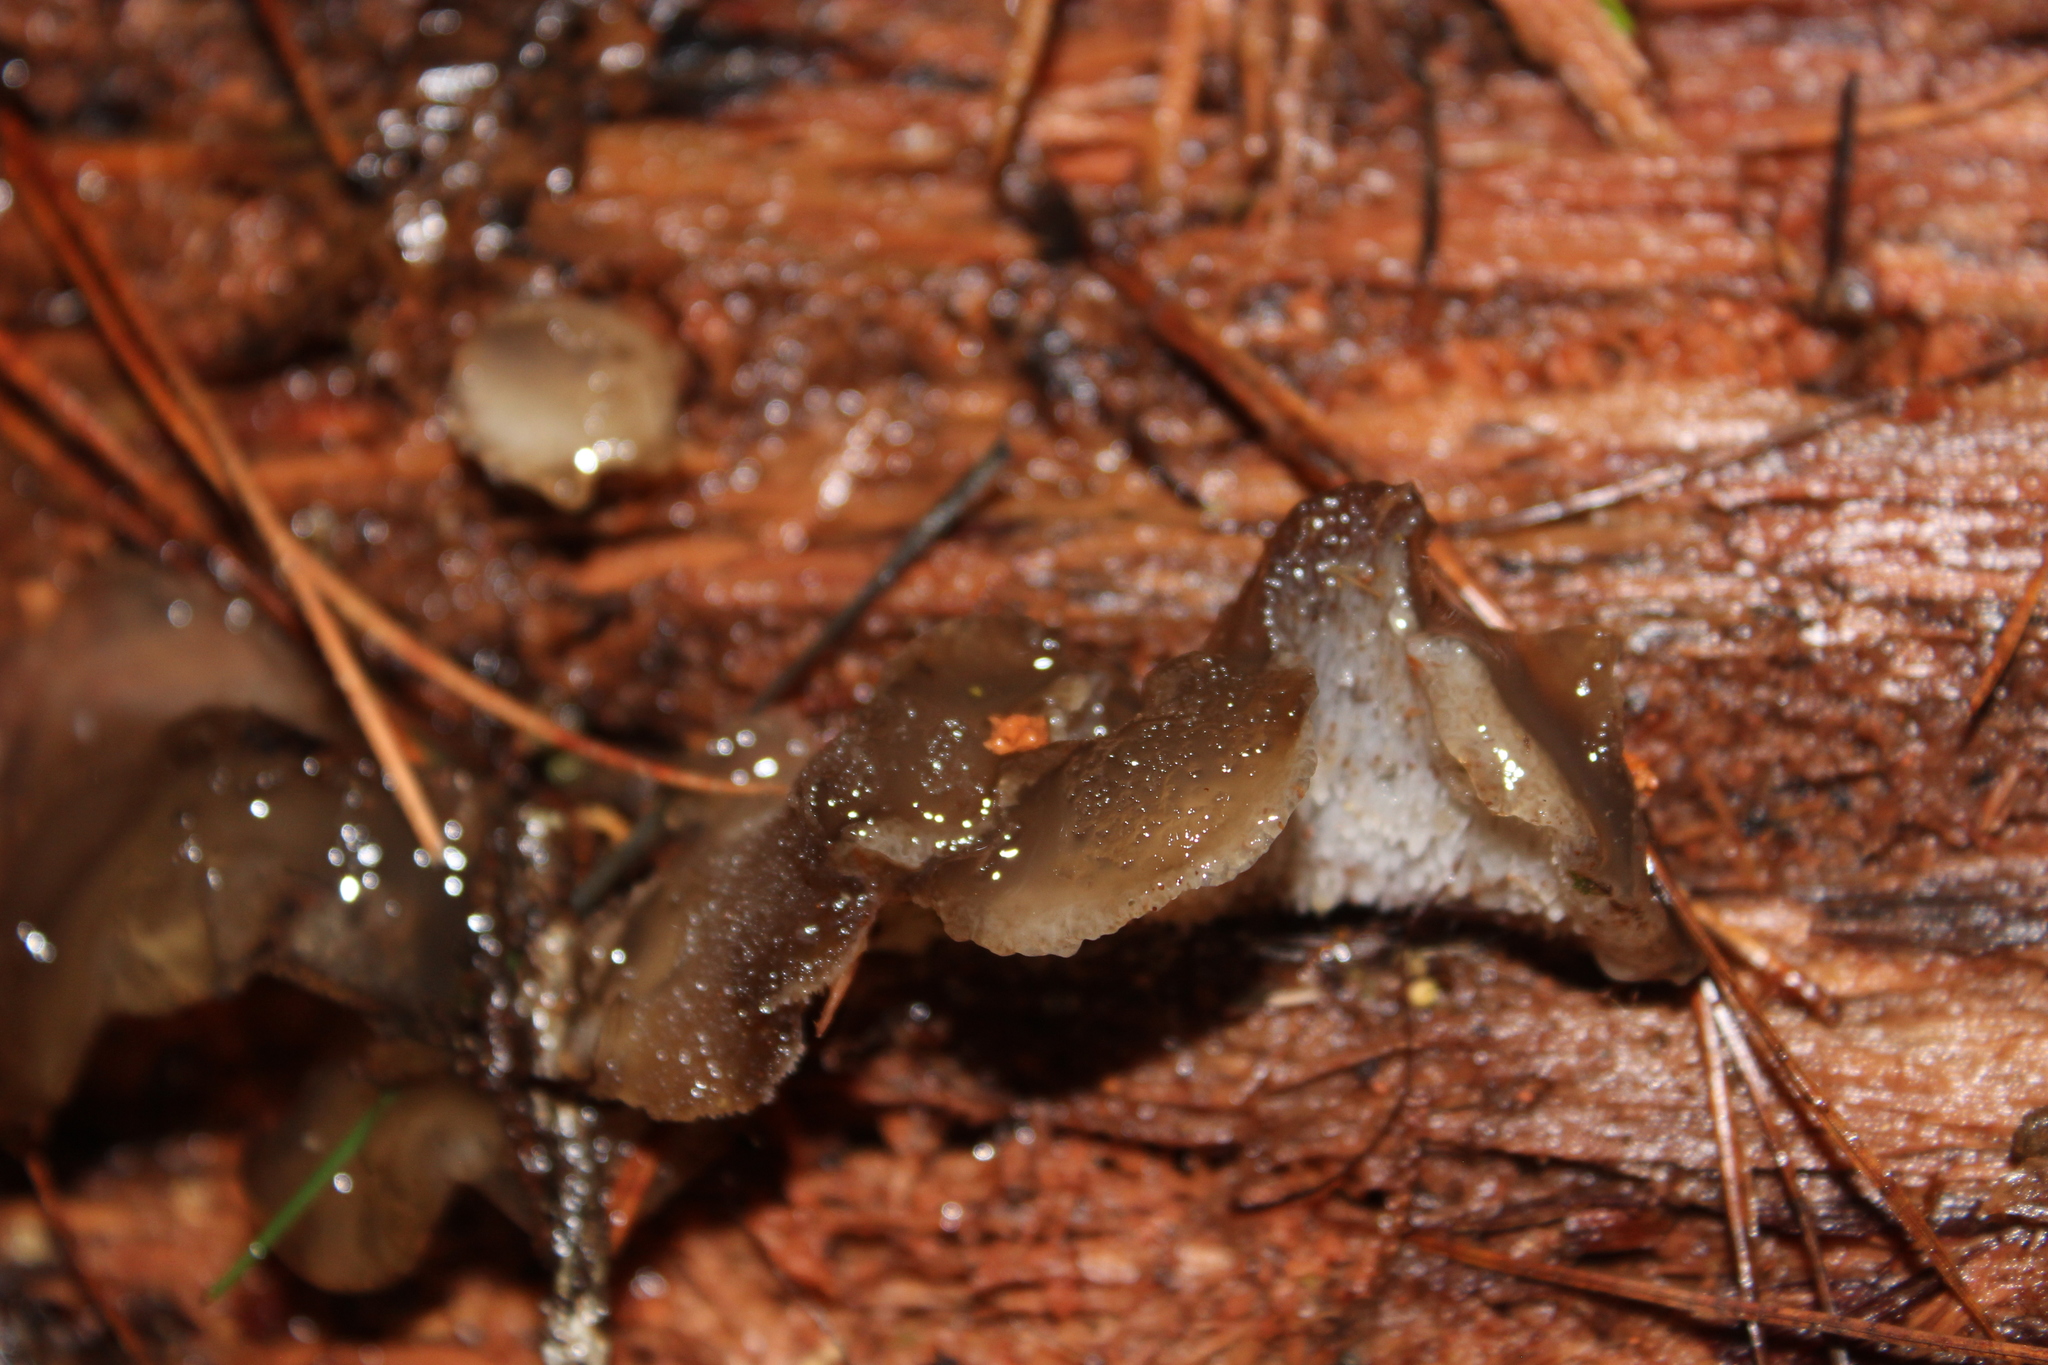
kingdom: Fungi
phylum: Basidiomycota
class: Agaricomycetes
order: Auriculariales
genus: Pseudohydnum
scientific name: Pseudohydnum orbiculare
